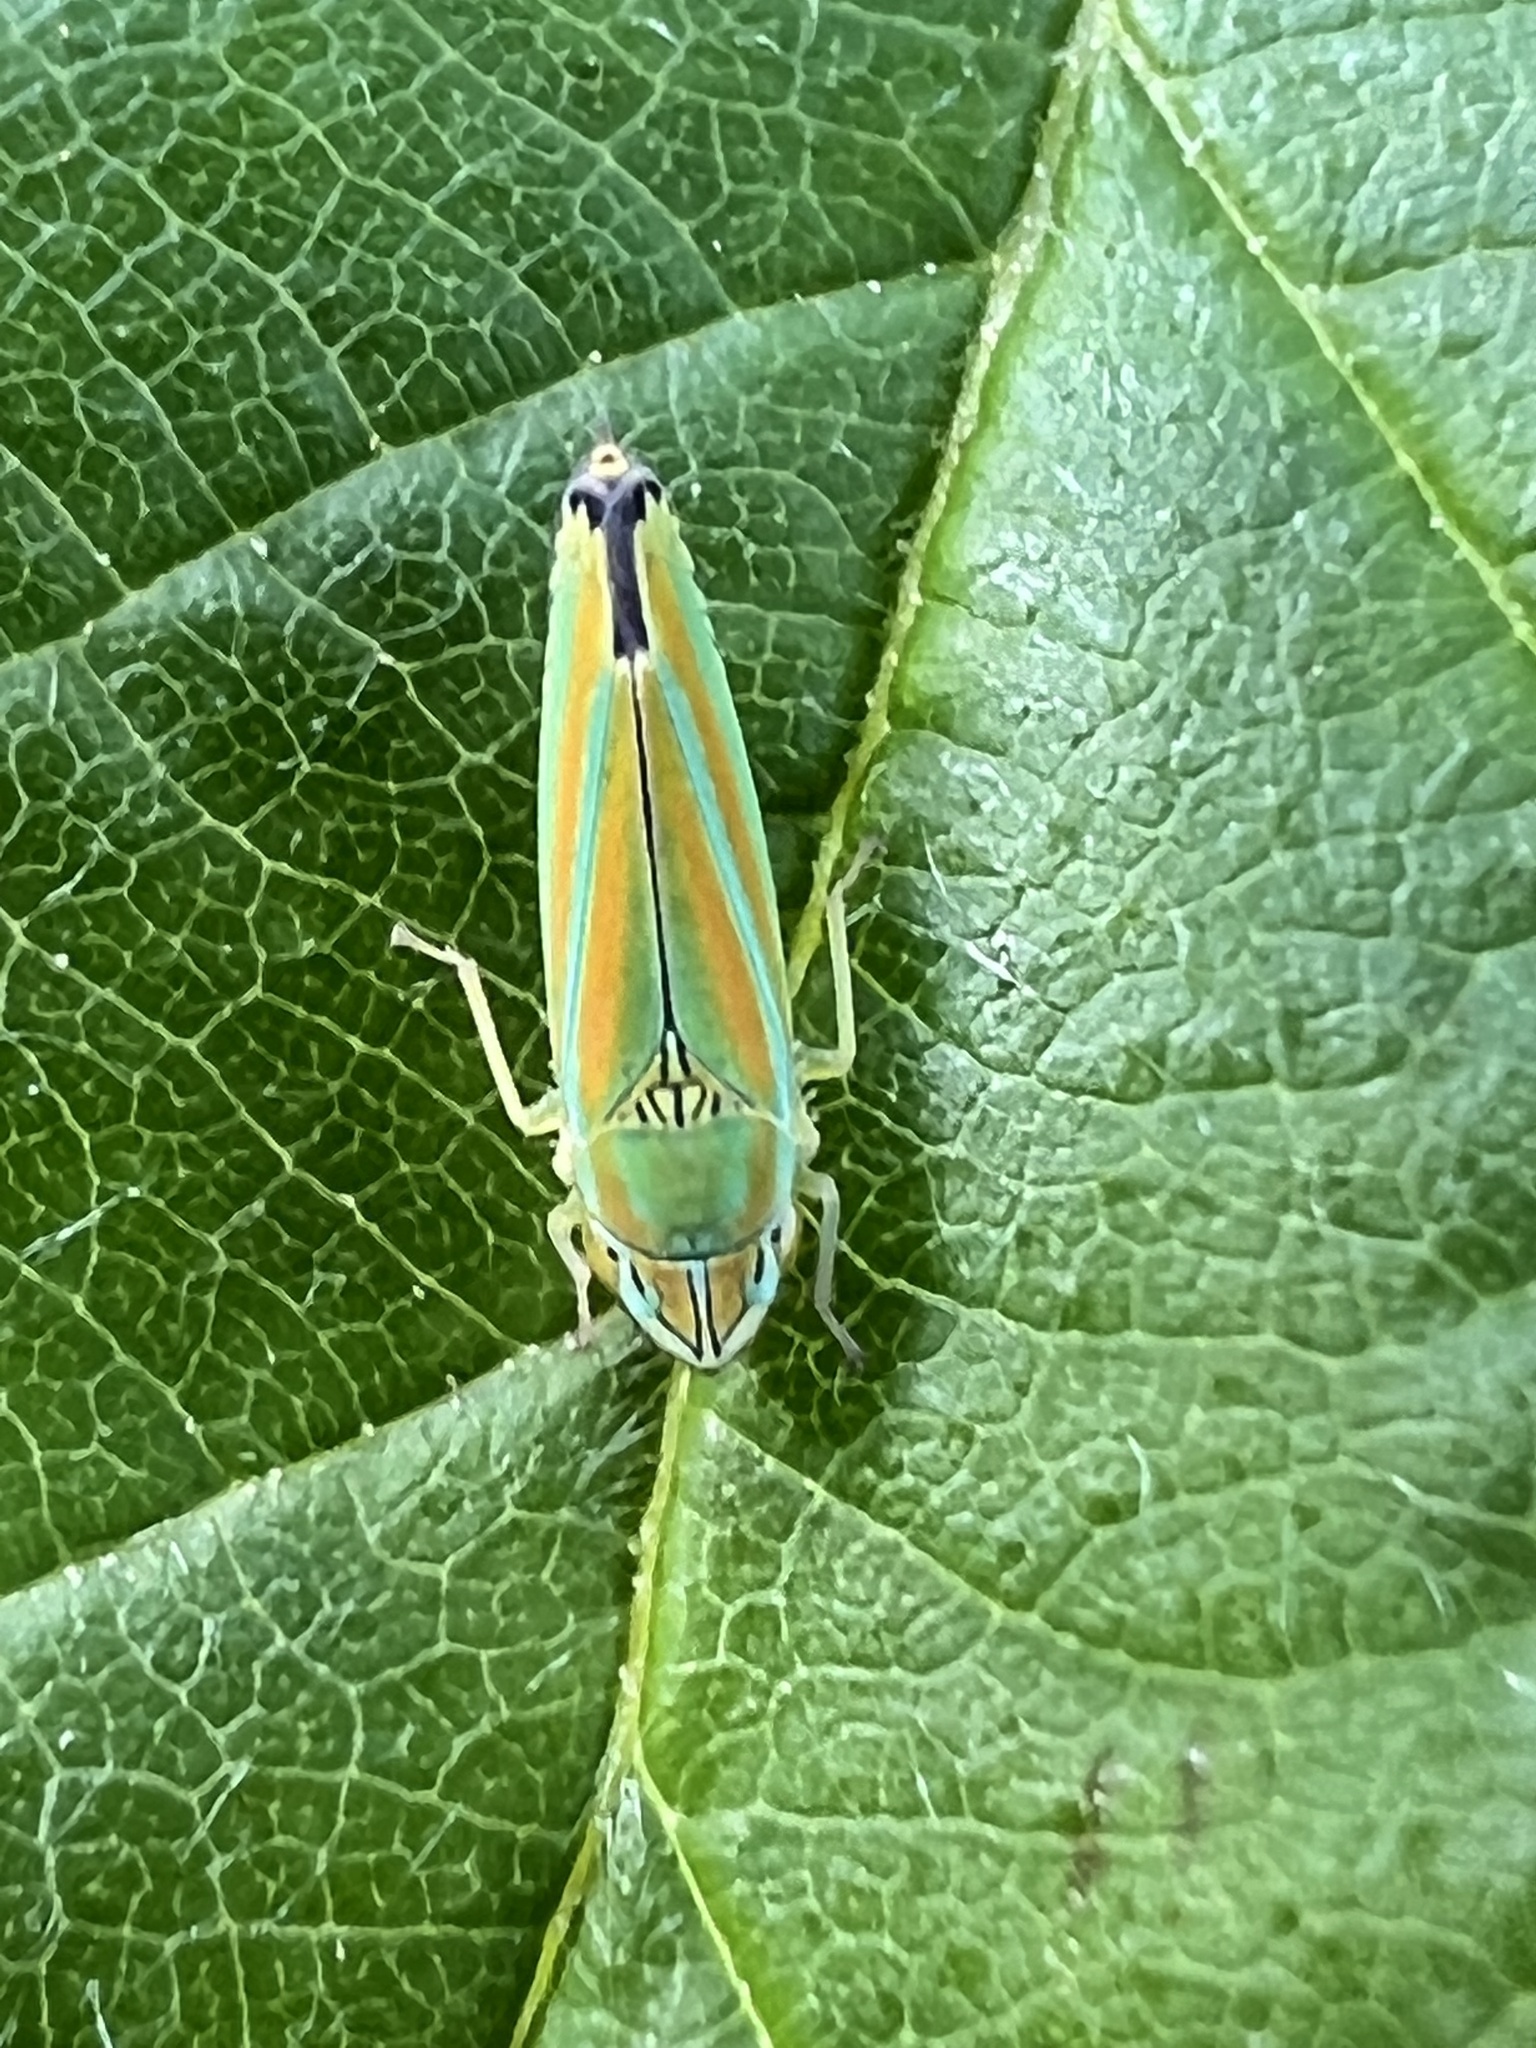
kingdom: Animalia
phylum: Arthropoda
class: Insecta
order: Hemiptera
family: Cicadellidae
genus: Graphocephala
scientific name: Graphocephala versuta
